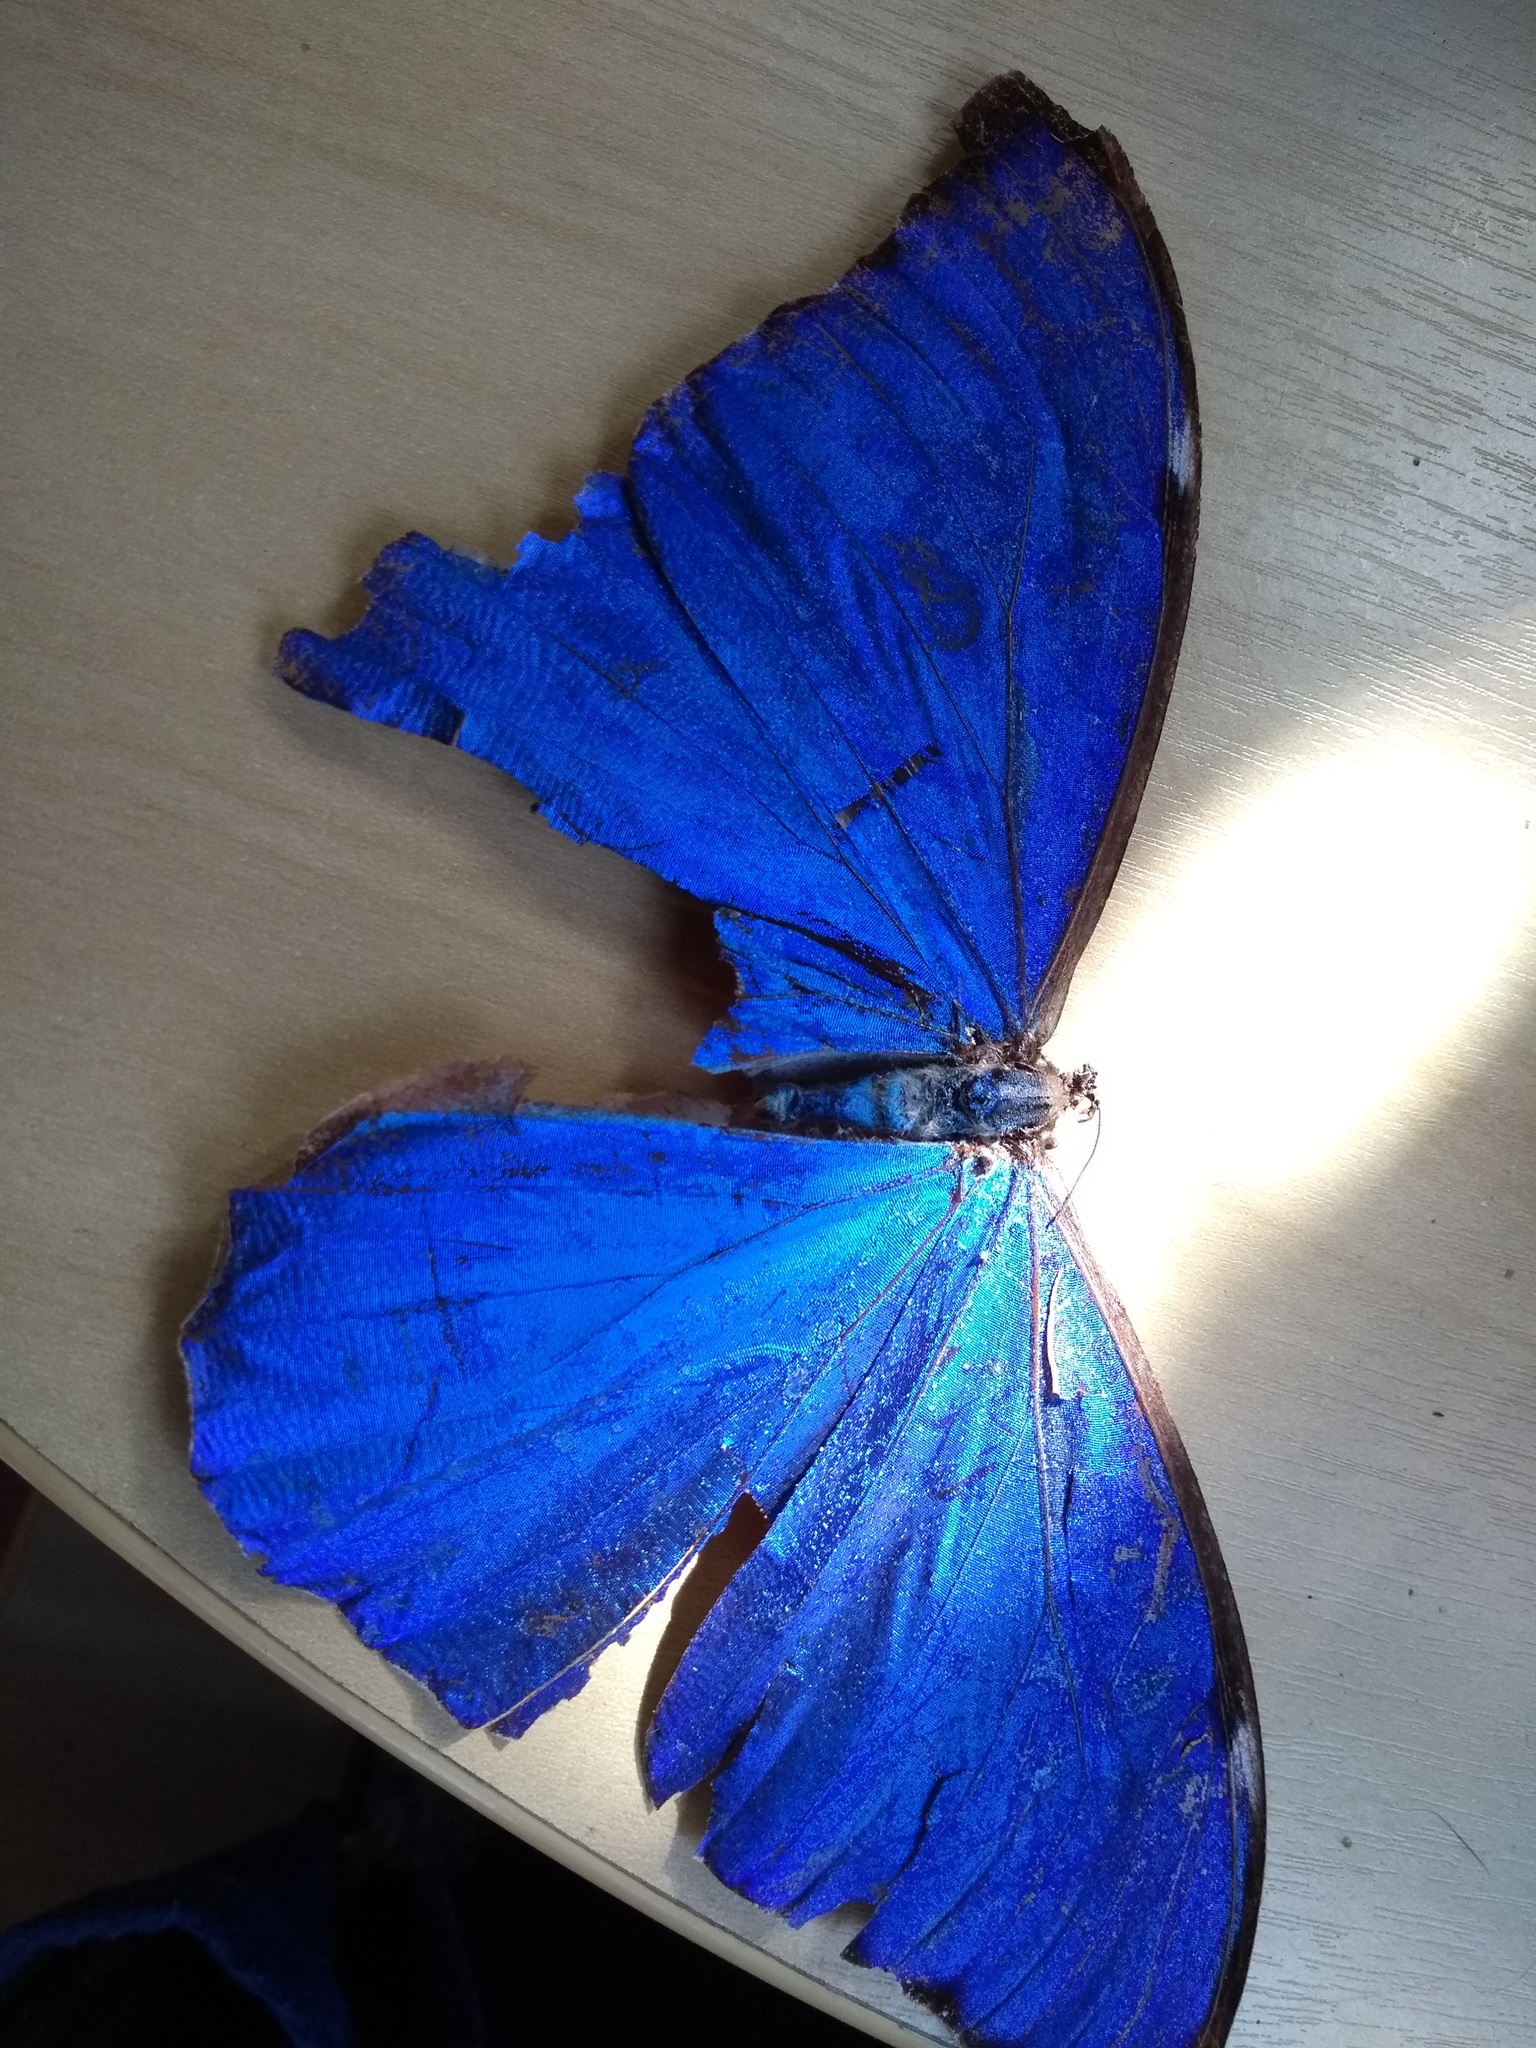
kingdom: Animalia
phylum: Arthropoda
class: Insecta
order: Lepidoptera
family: Nymphalidae
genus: Morpho
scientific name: Morpho anaxibia
